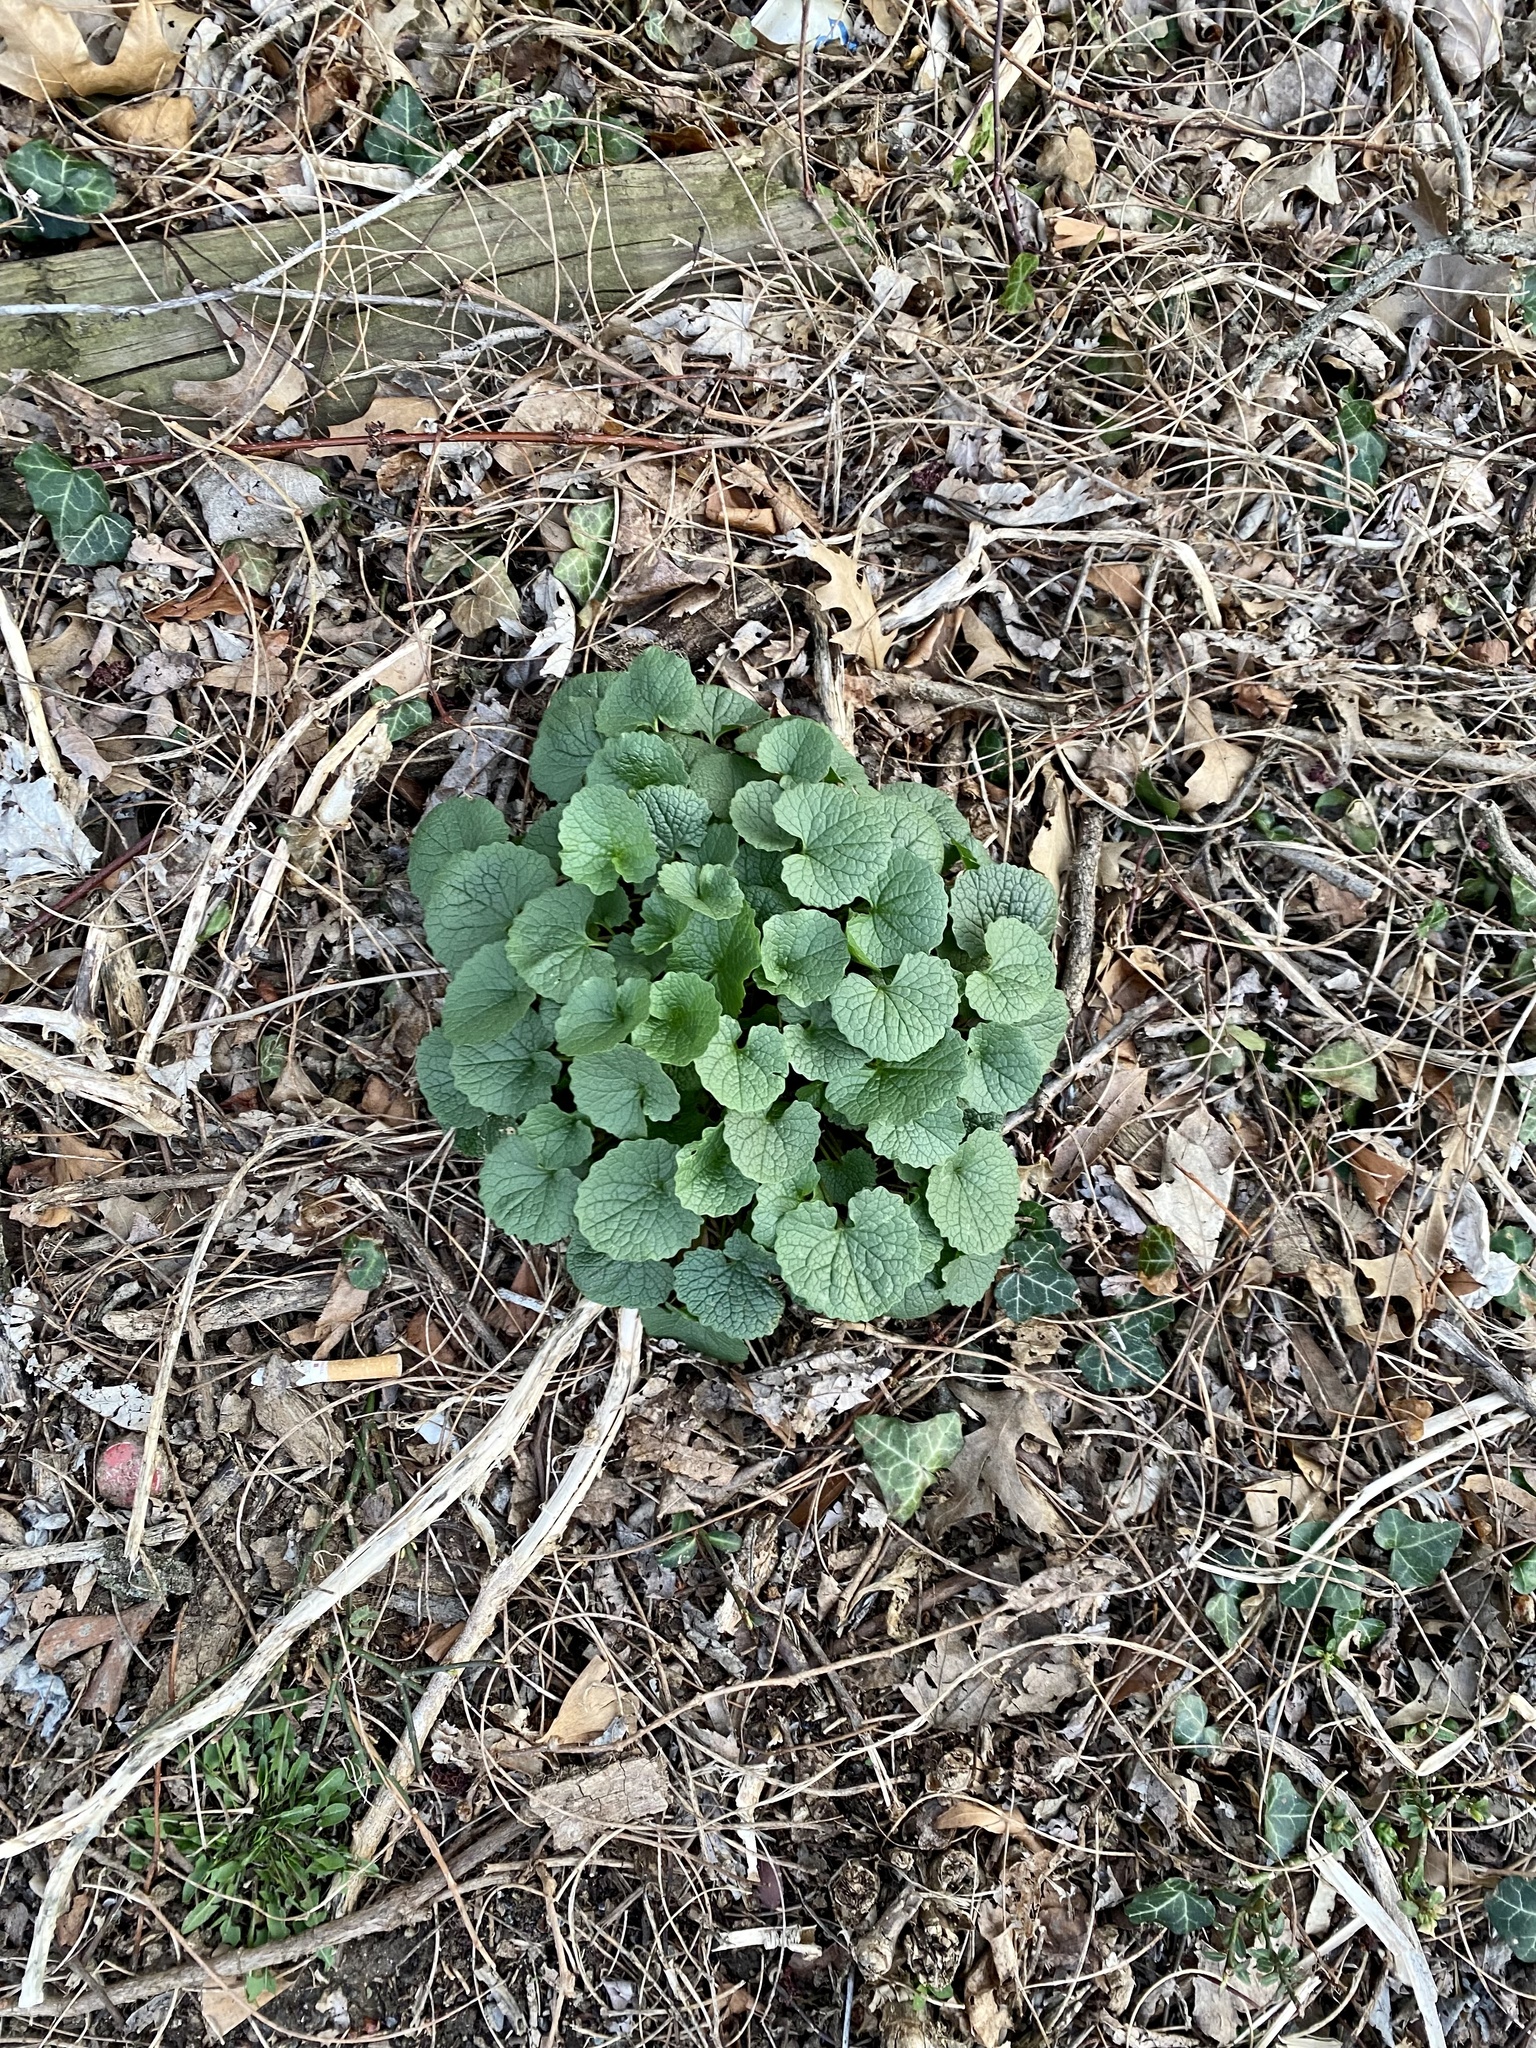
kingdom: Plantae
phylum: Tracheophyta
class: Magnoliopsida
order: Brassicales
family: Brassicaceae
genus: Alliaria
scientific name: Alliaria petiolata
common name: Garlic mustard
